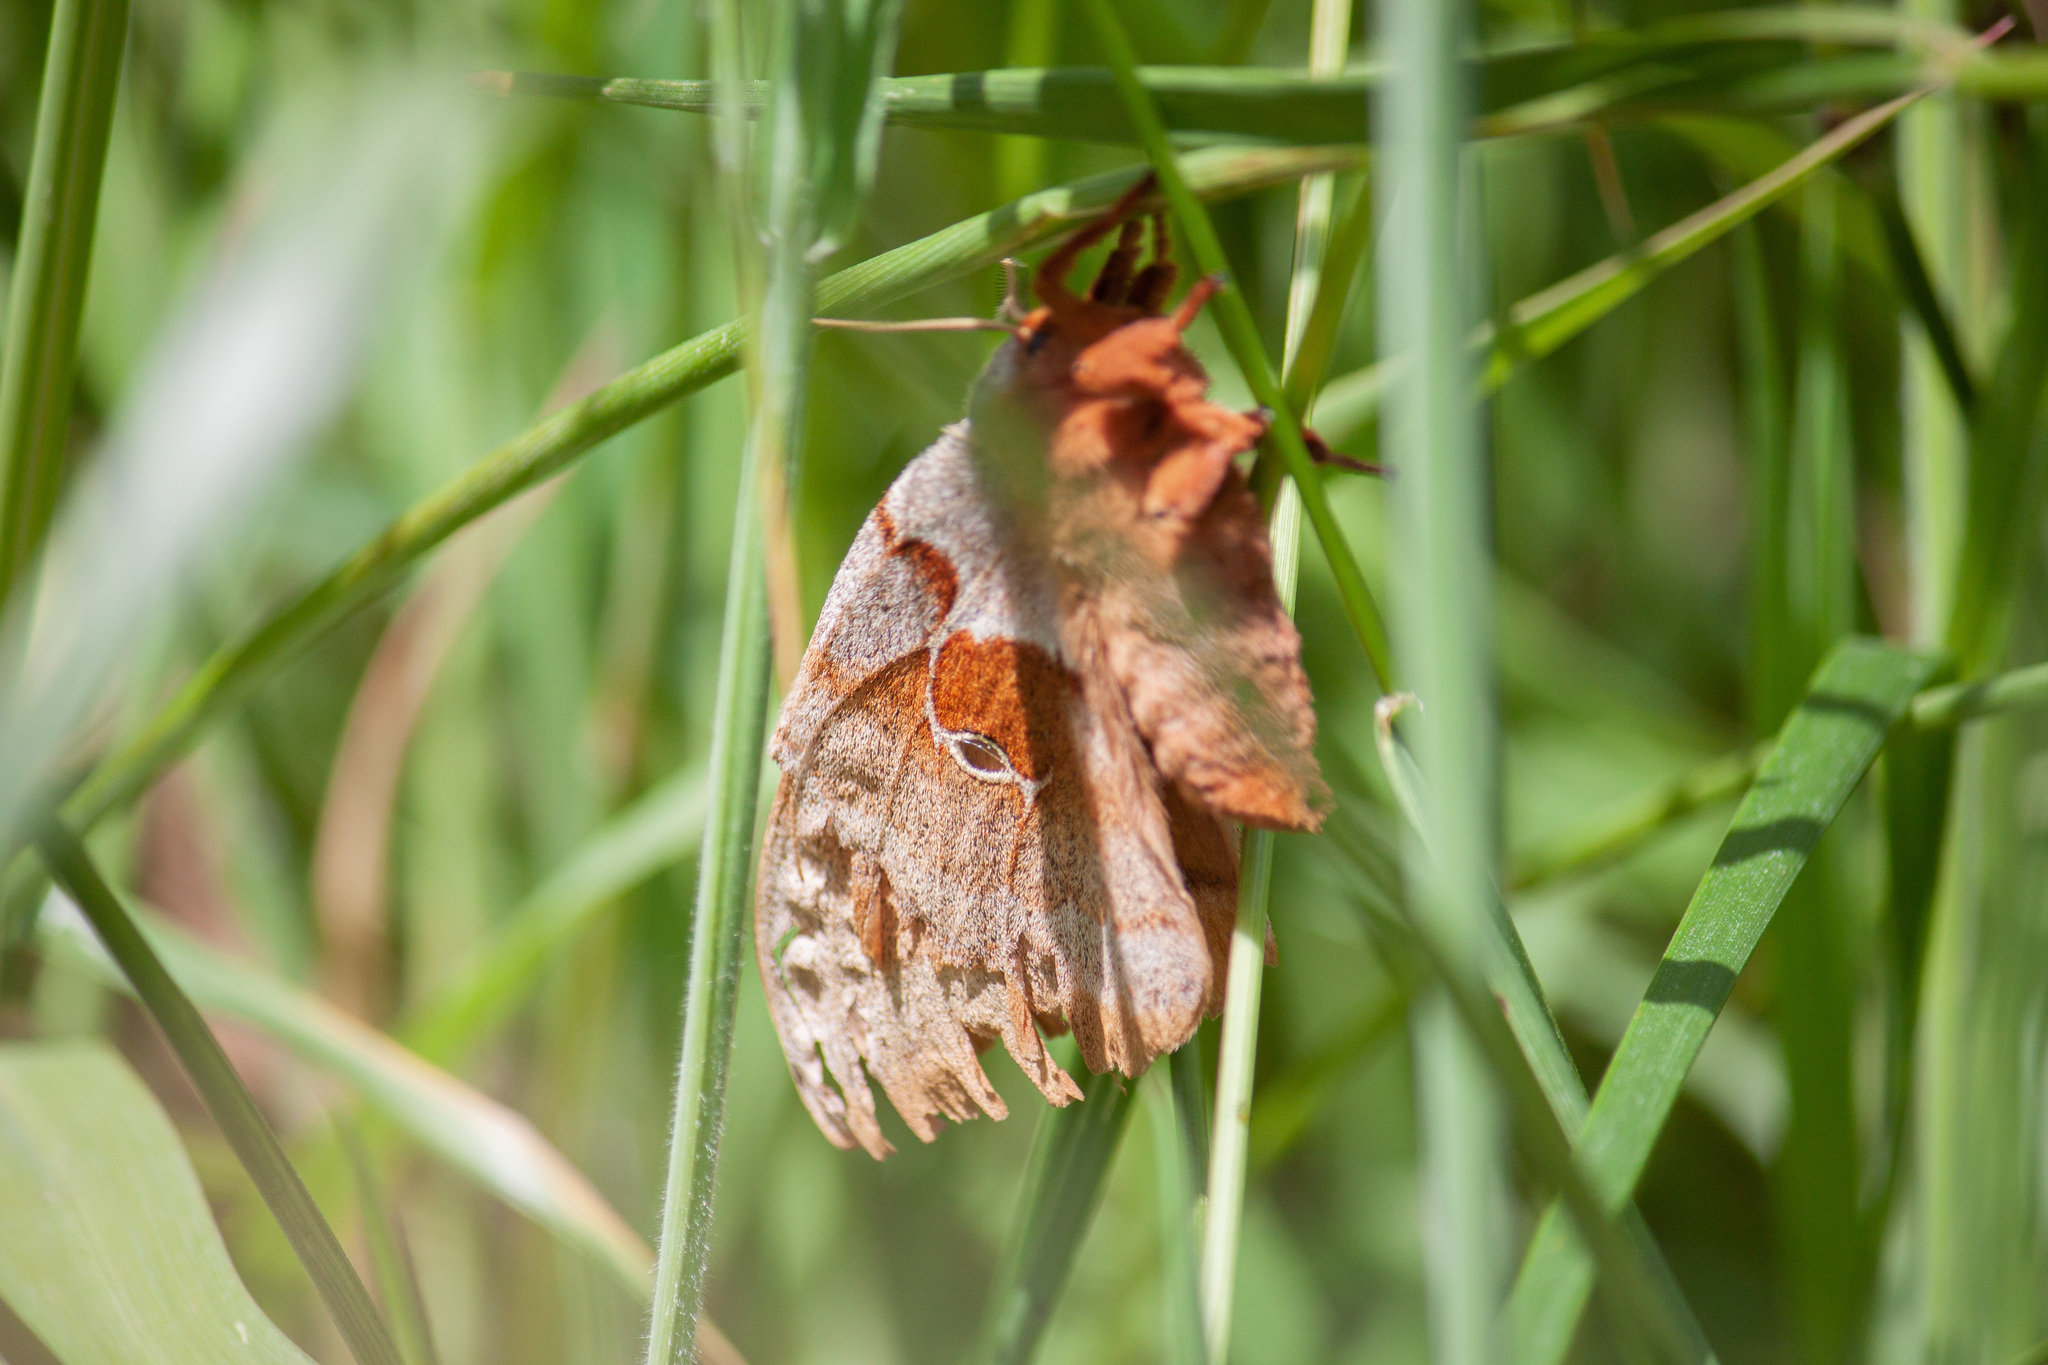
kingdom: Animalia
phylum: Arthropoda
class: Insecta
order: Lepidoptera
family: Saturniidae
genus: Antheraea
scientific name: Antheraea polyphemus
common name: Polyphemus moth
